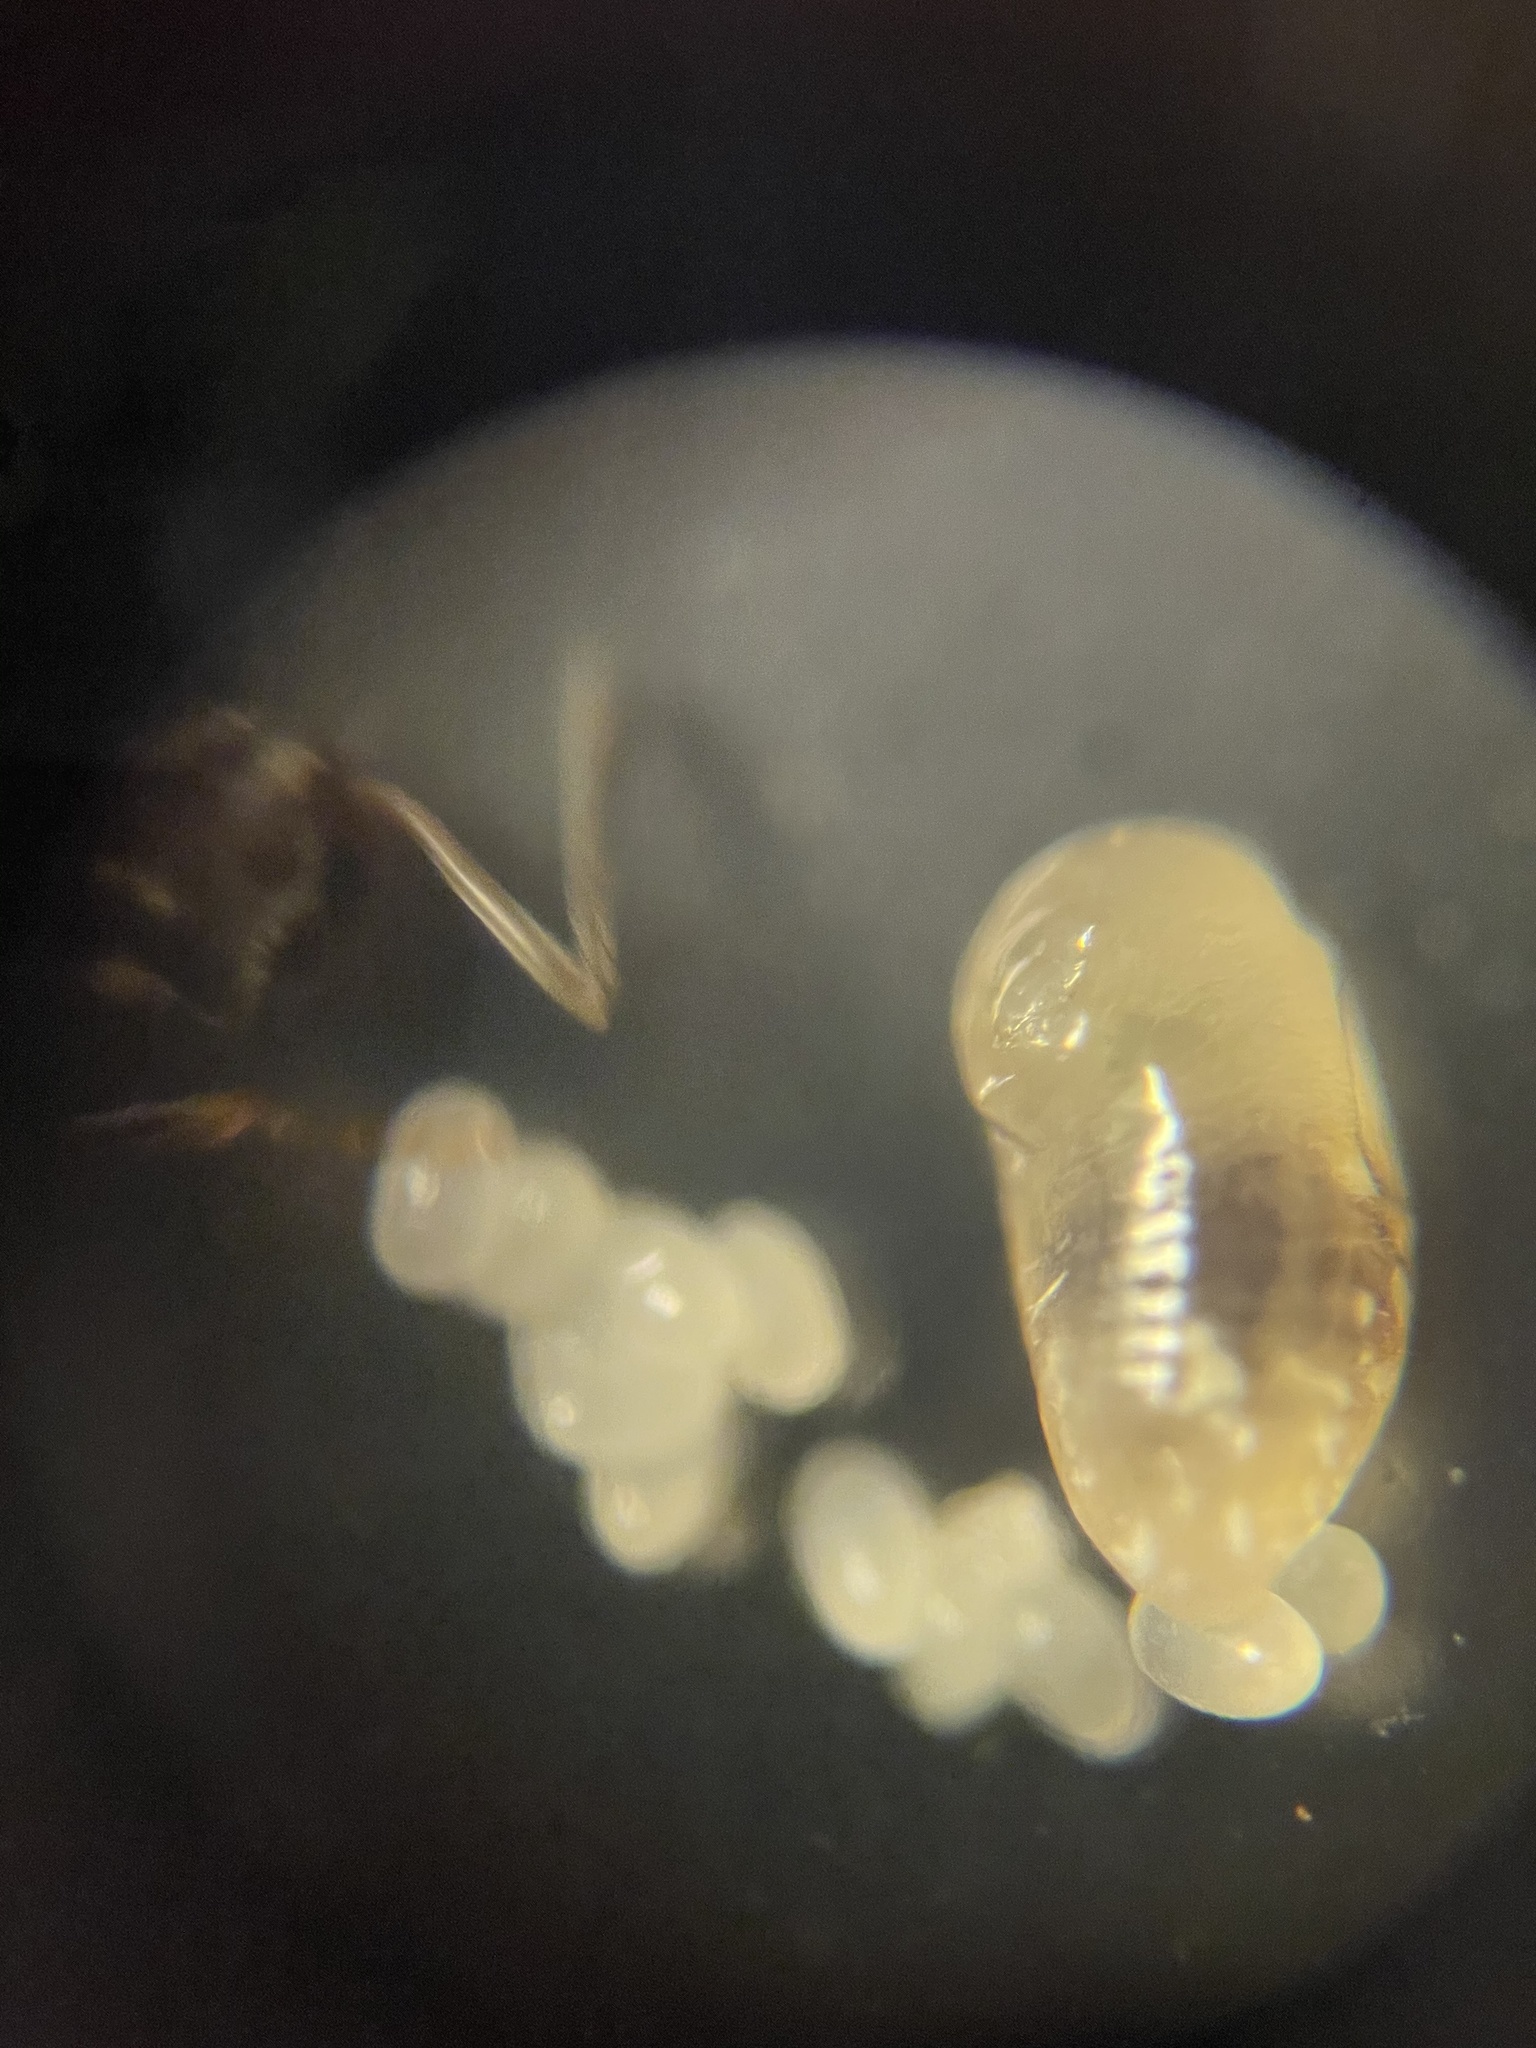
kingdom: Animalia
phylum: Arthropoda
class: Insecta
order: Hymenoptera
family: Formicidae
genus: Tapinoma
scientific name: Tapinoma sessile
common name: Odorous house ant
